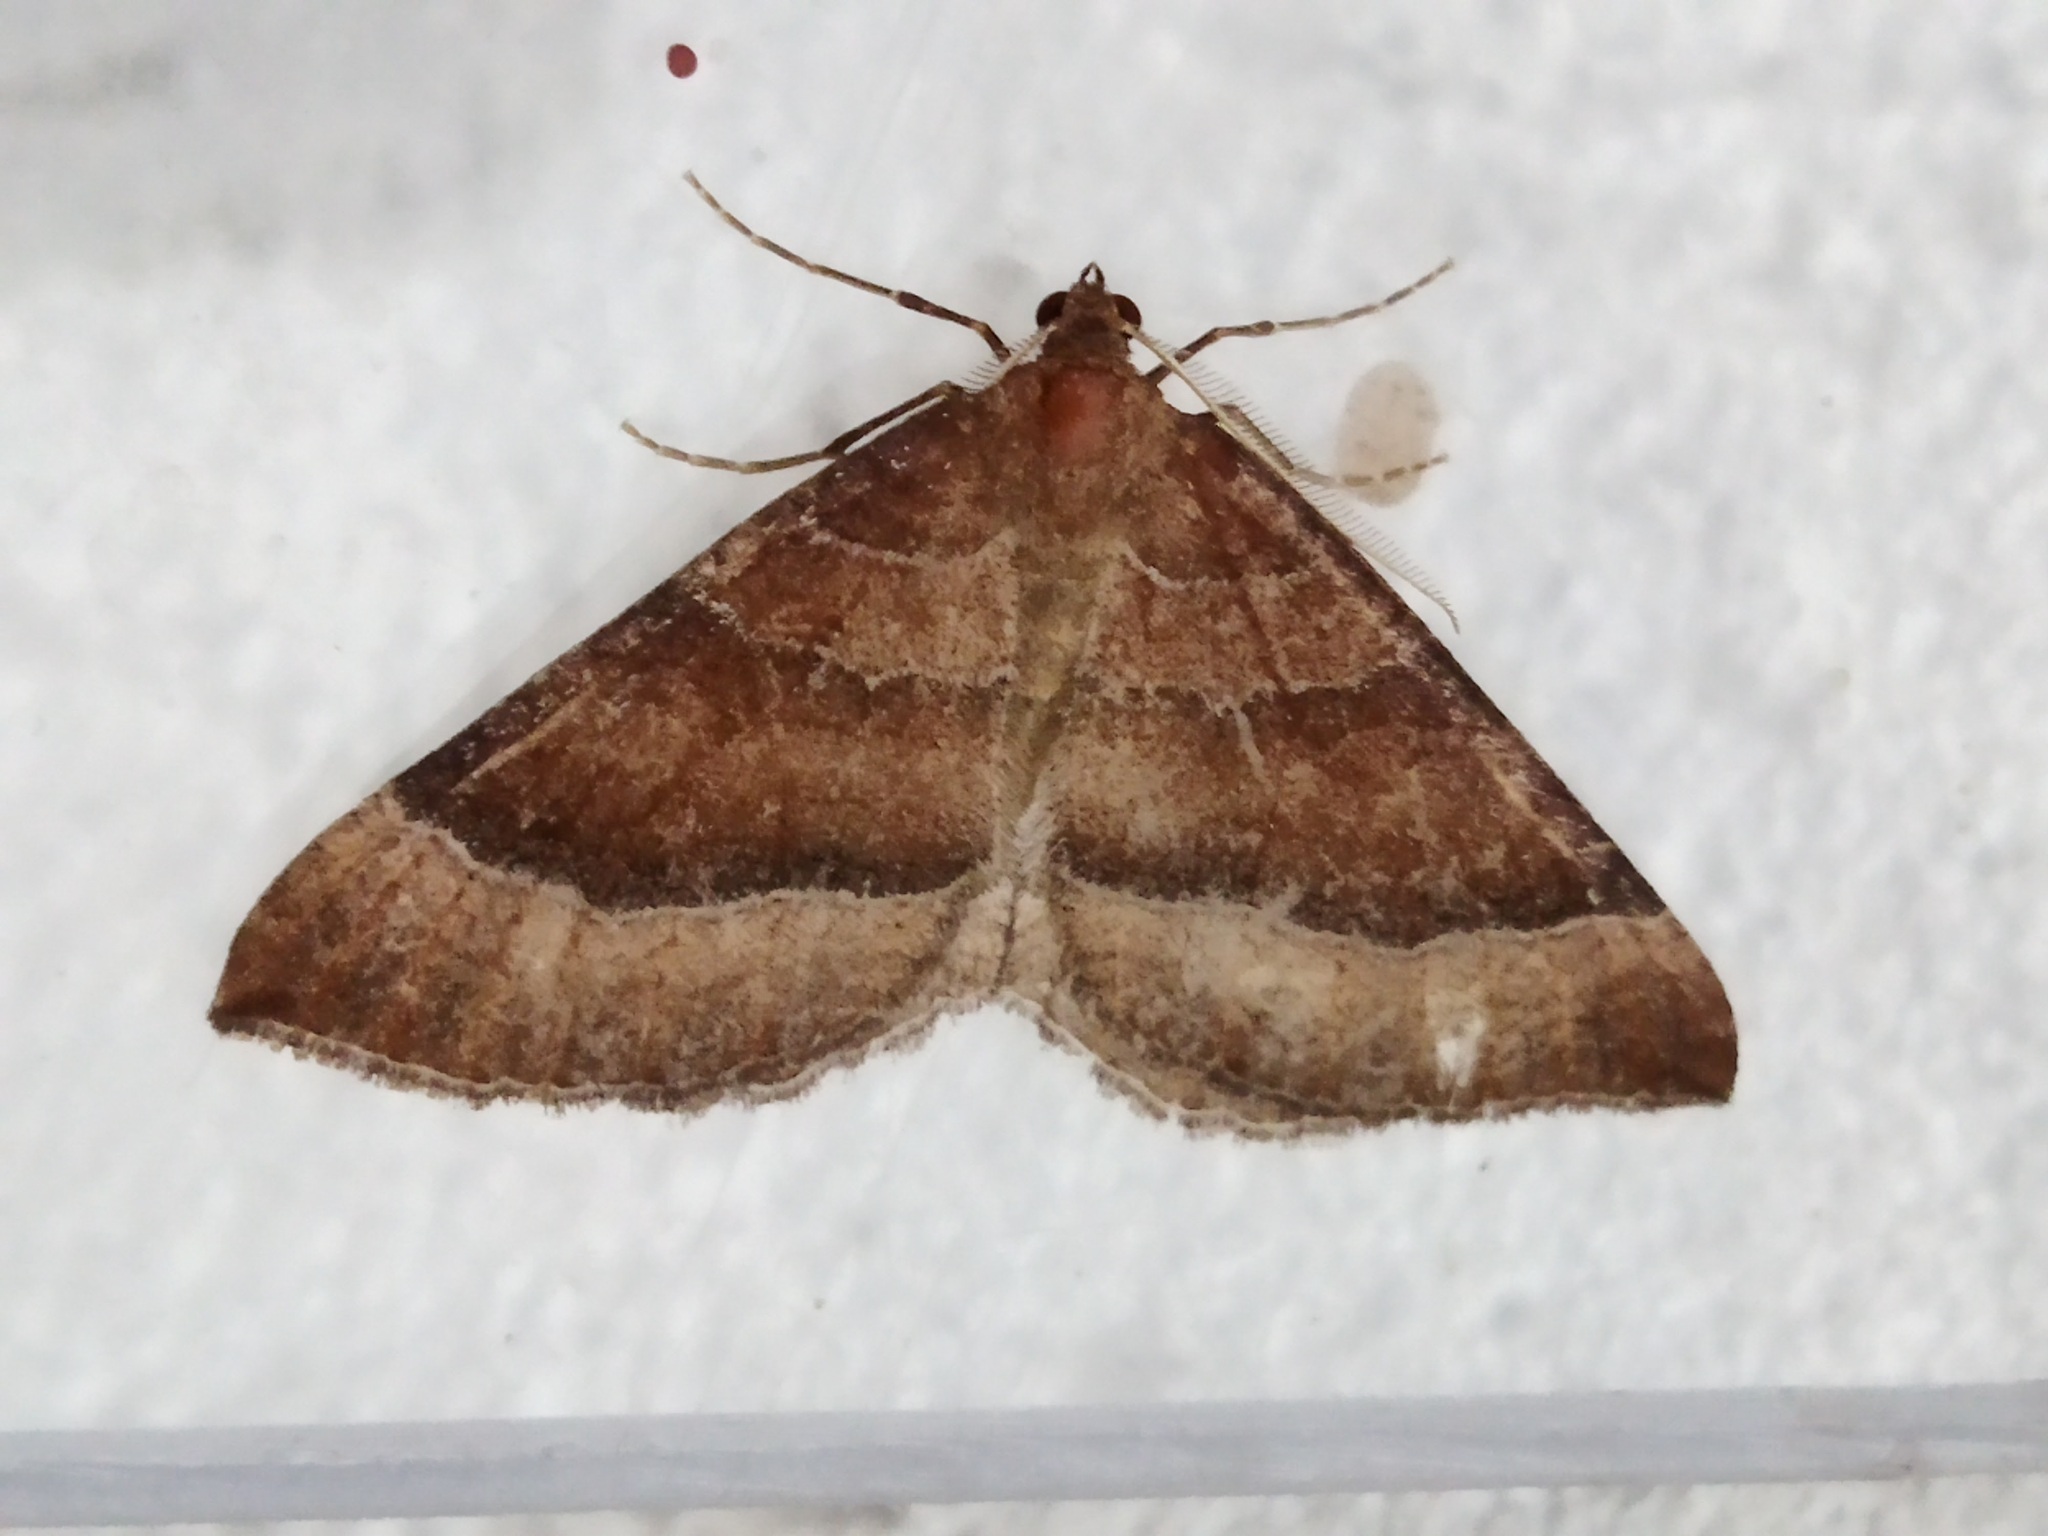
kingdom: Animalia
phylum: Arthropoda
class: Insecta
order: Lepidoptera
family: Geometridae
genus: Larentia
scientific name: Larentia clavaria
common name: Mallow
